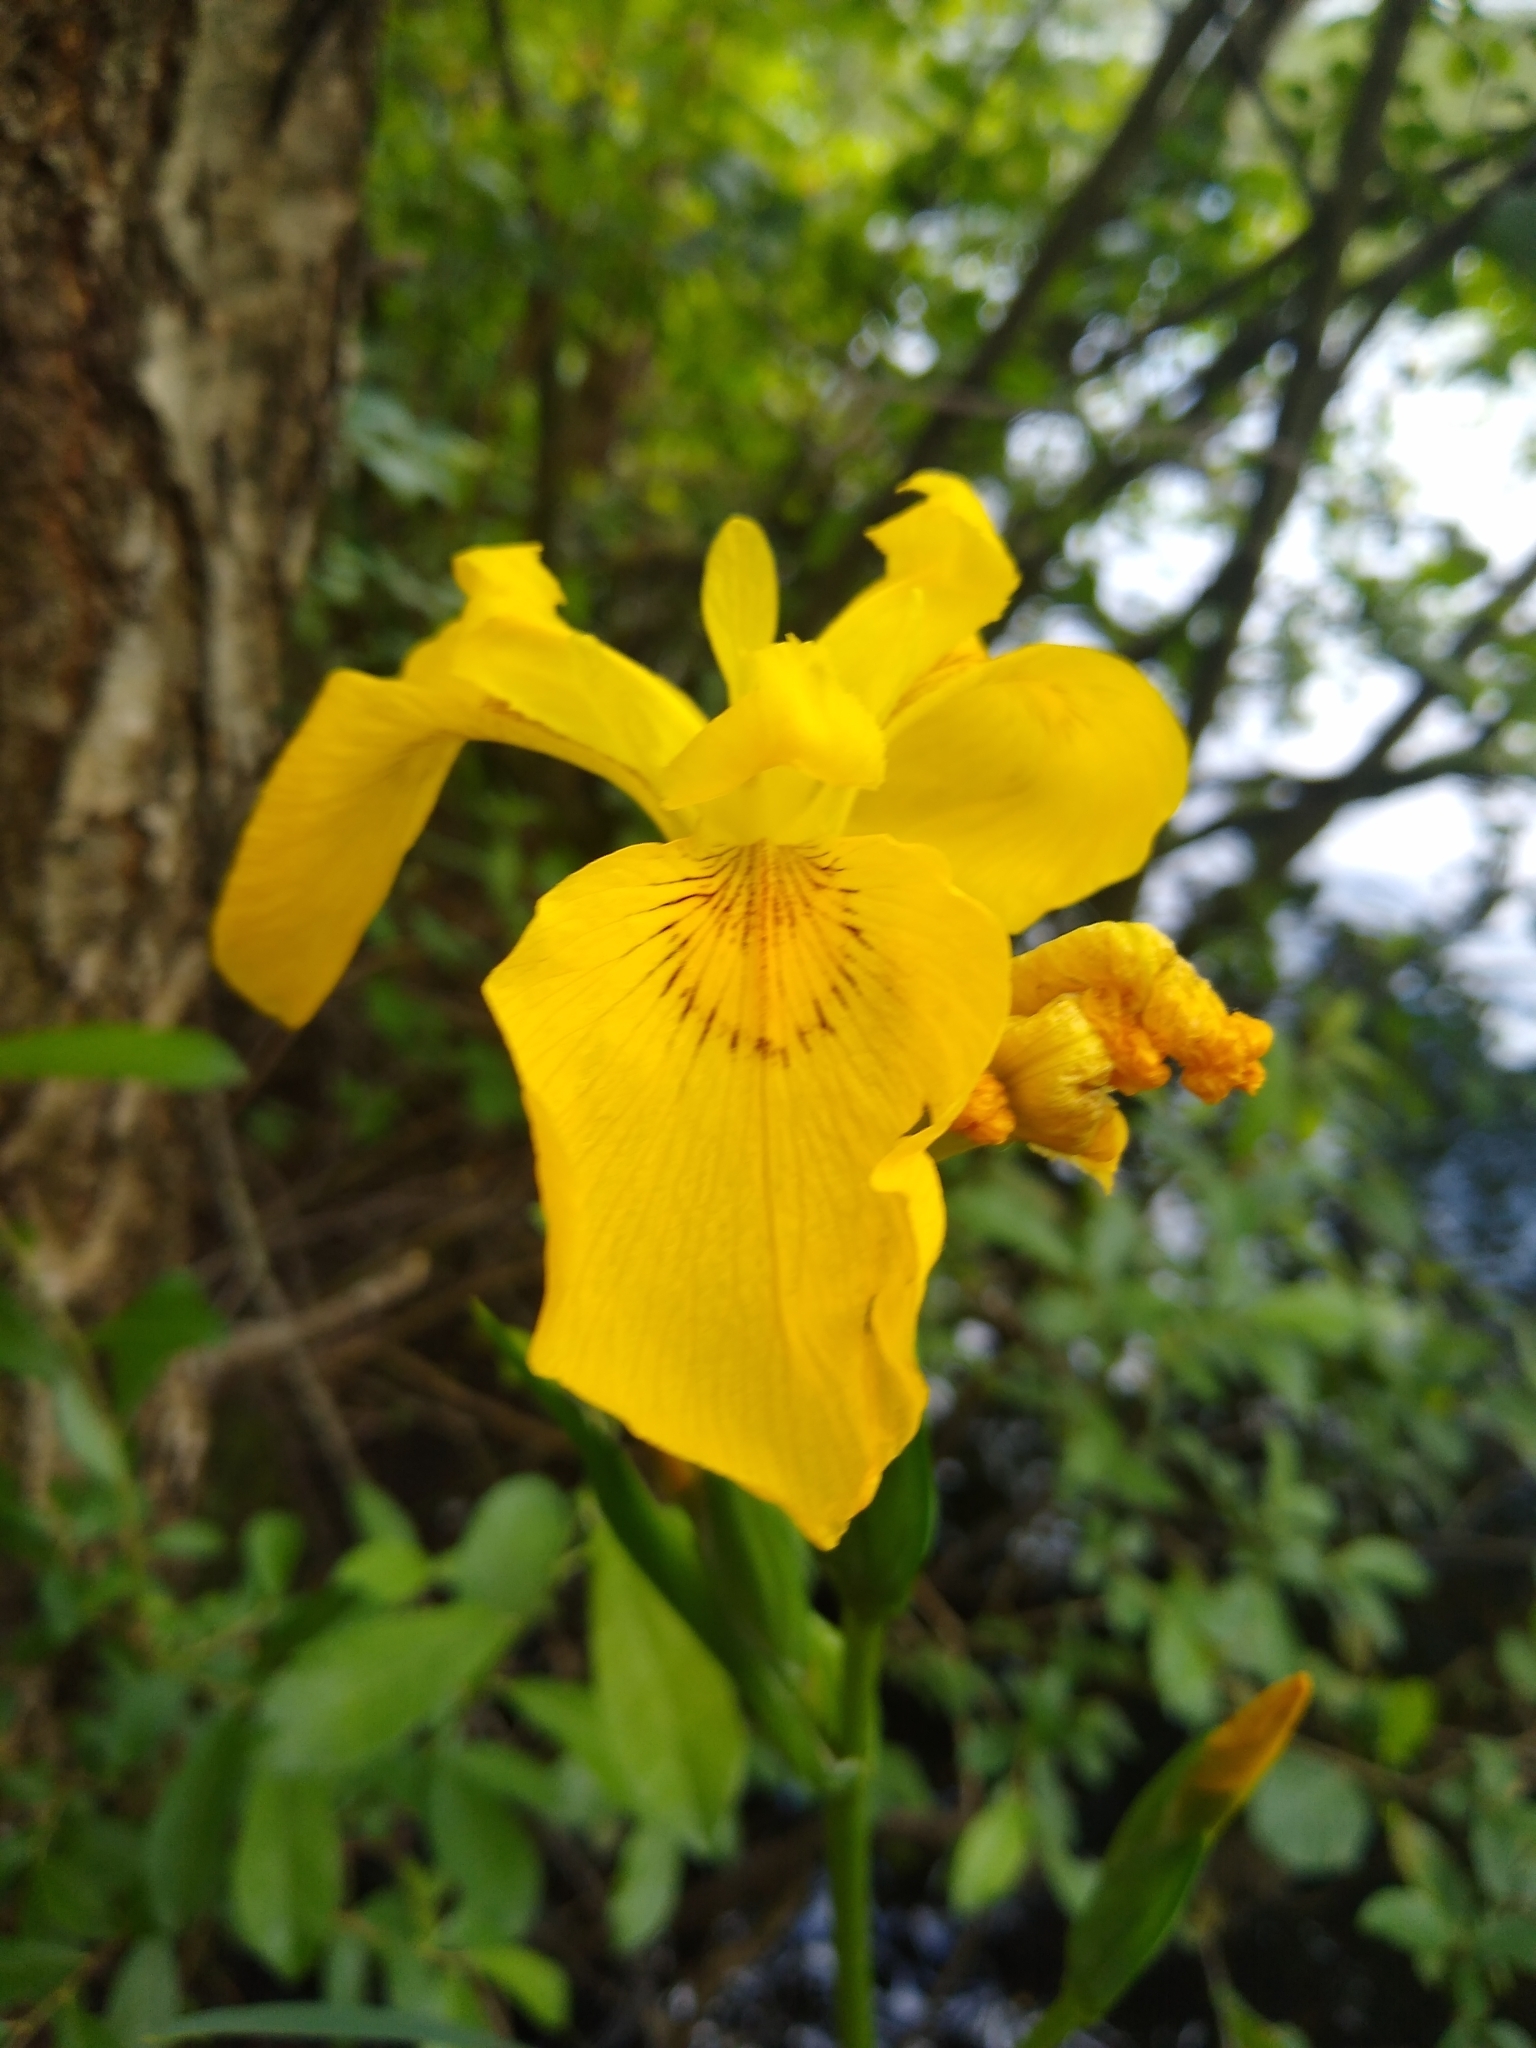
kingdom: Plantae
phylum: Tracheophyta
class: Liliopsida
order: Asparagales
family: Iridaceae
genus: Iris
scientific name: Iris pseudacorus
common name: Yellow flag
